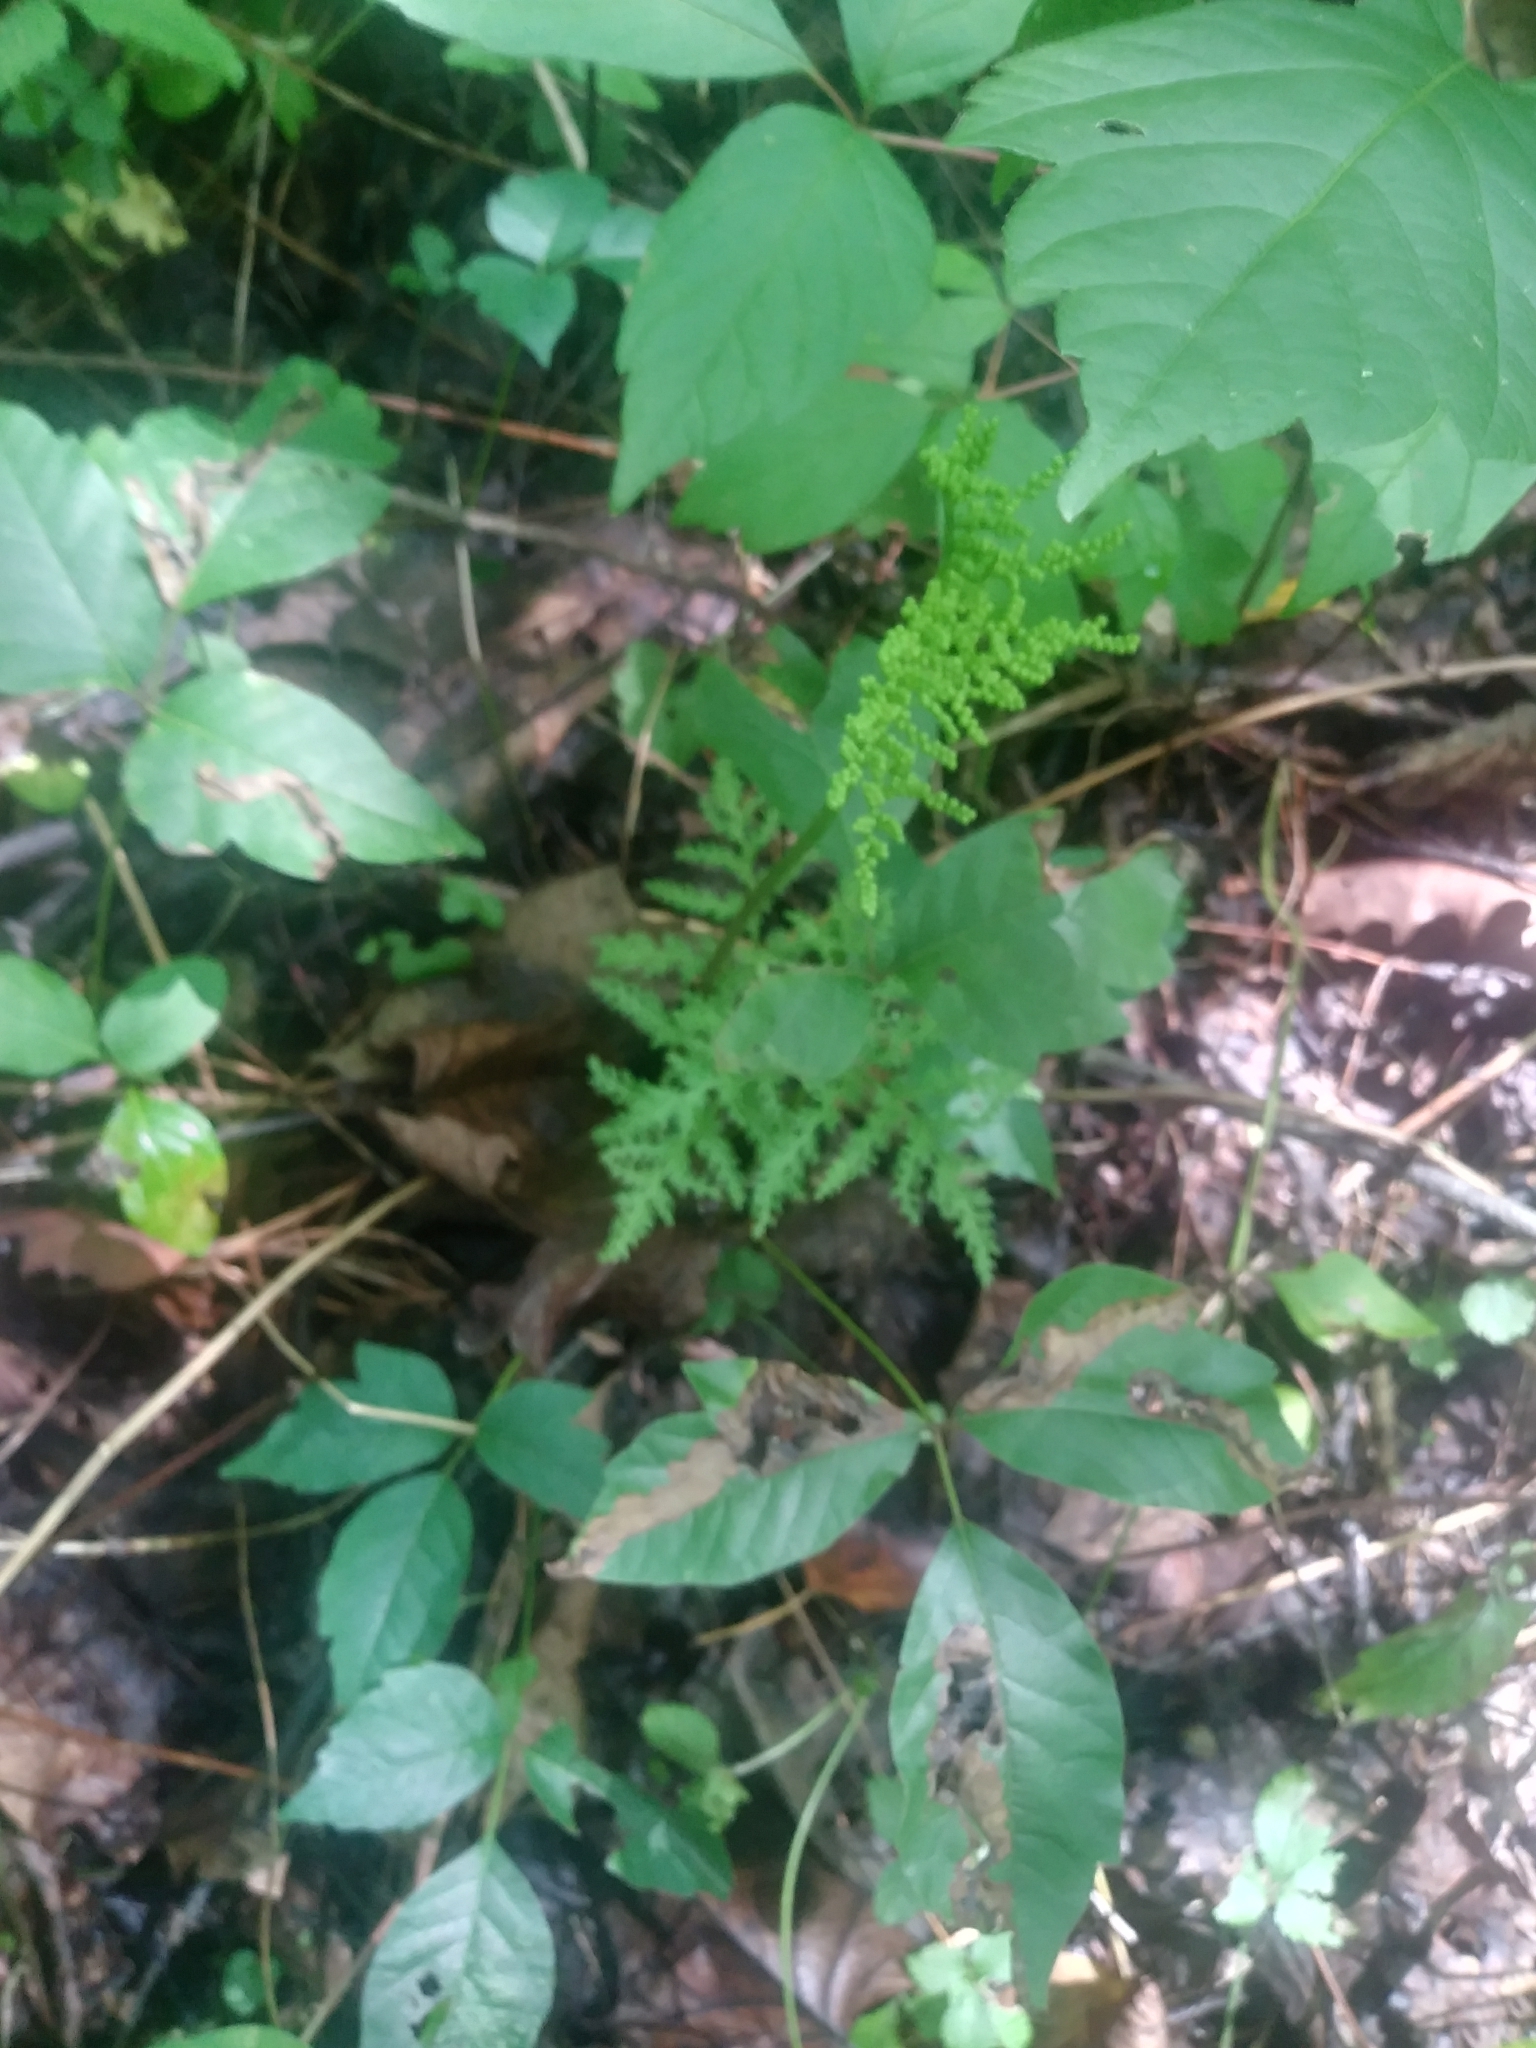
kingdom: Plantae
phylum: Tracheophyta
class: Polypodiopsida
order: Ophioglossales
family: Ophioglossaceae
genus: Sceptridium
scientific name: Sceptridium dissectum
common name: Cut-leaved grapefern
